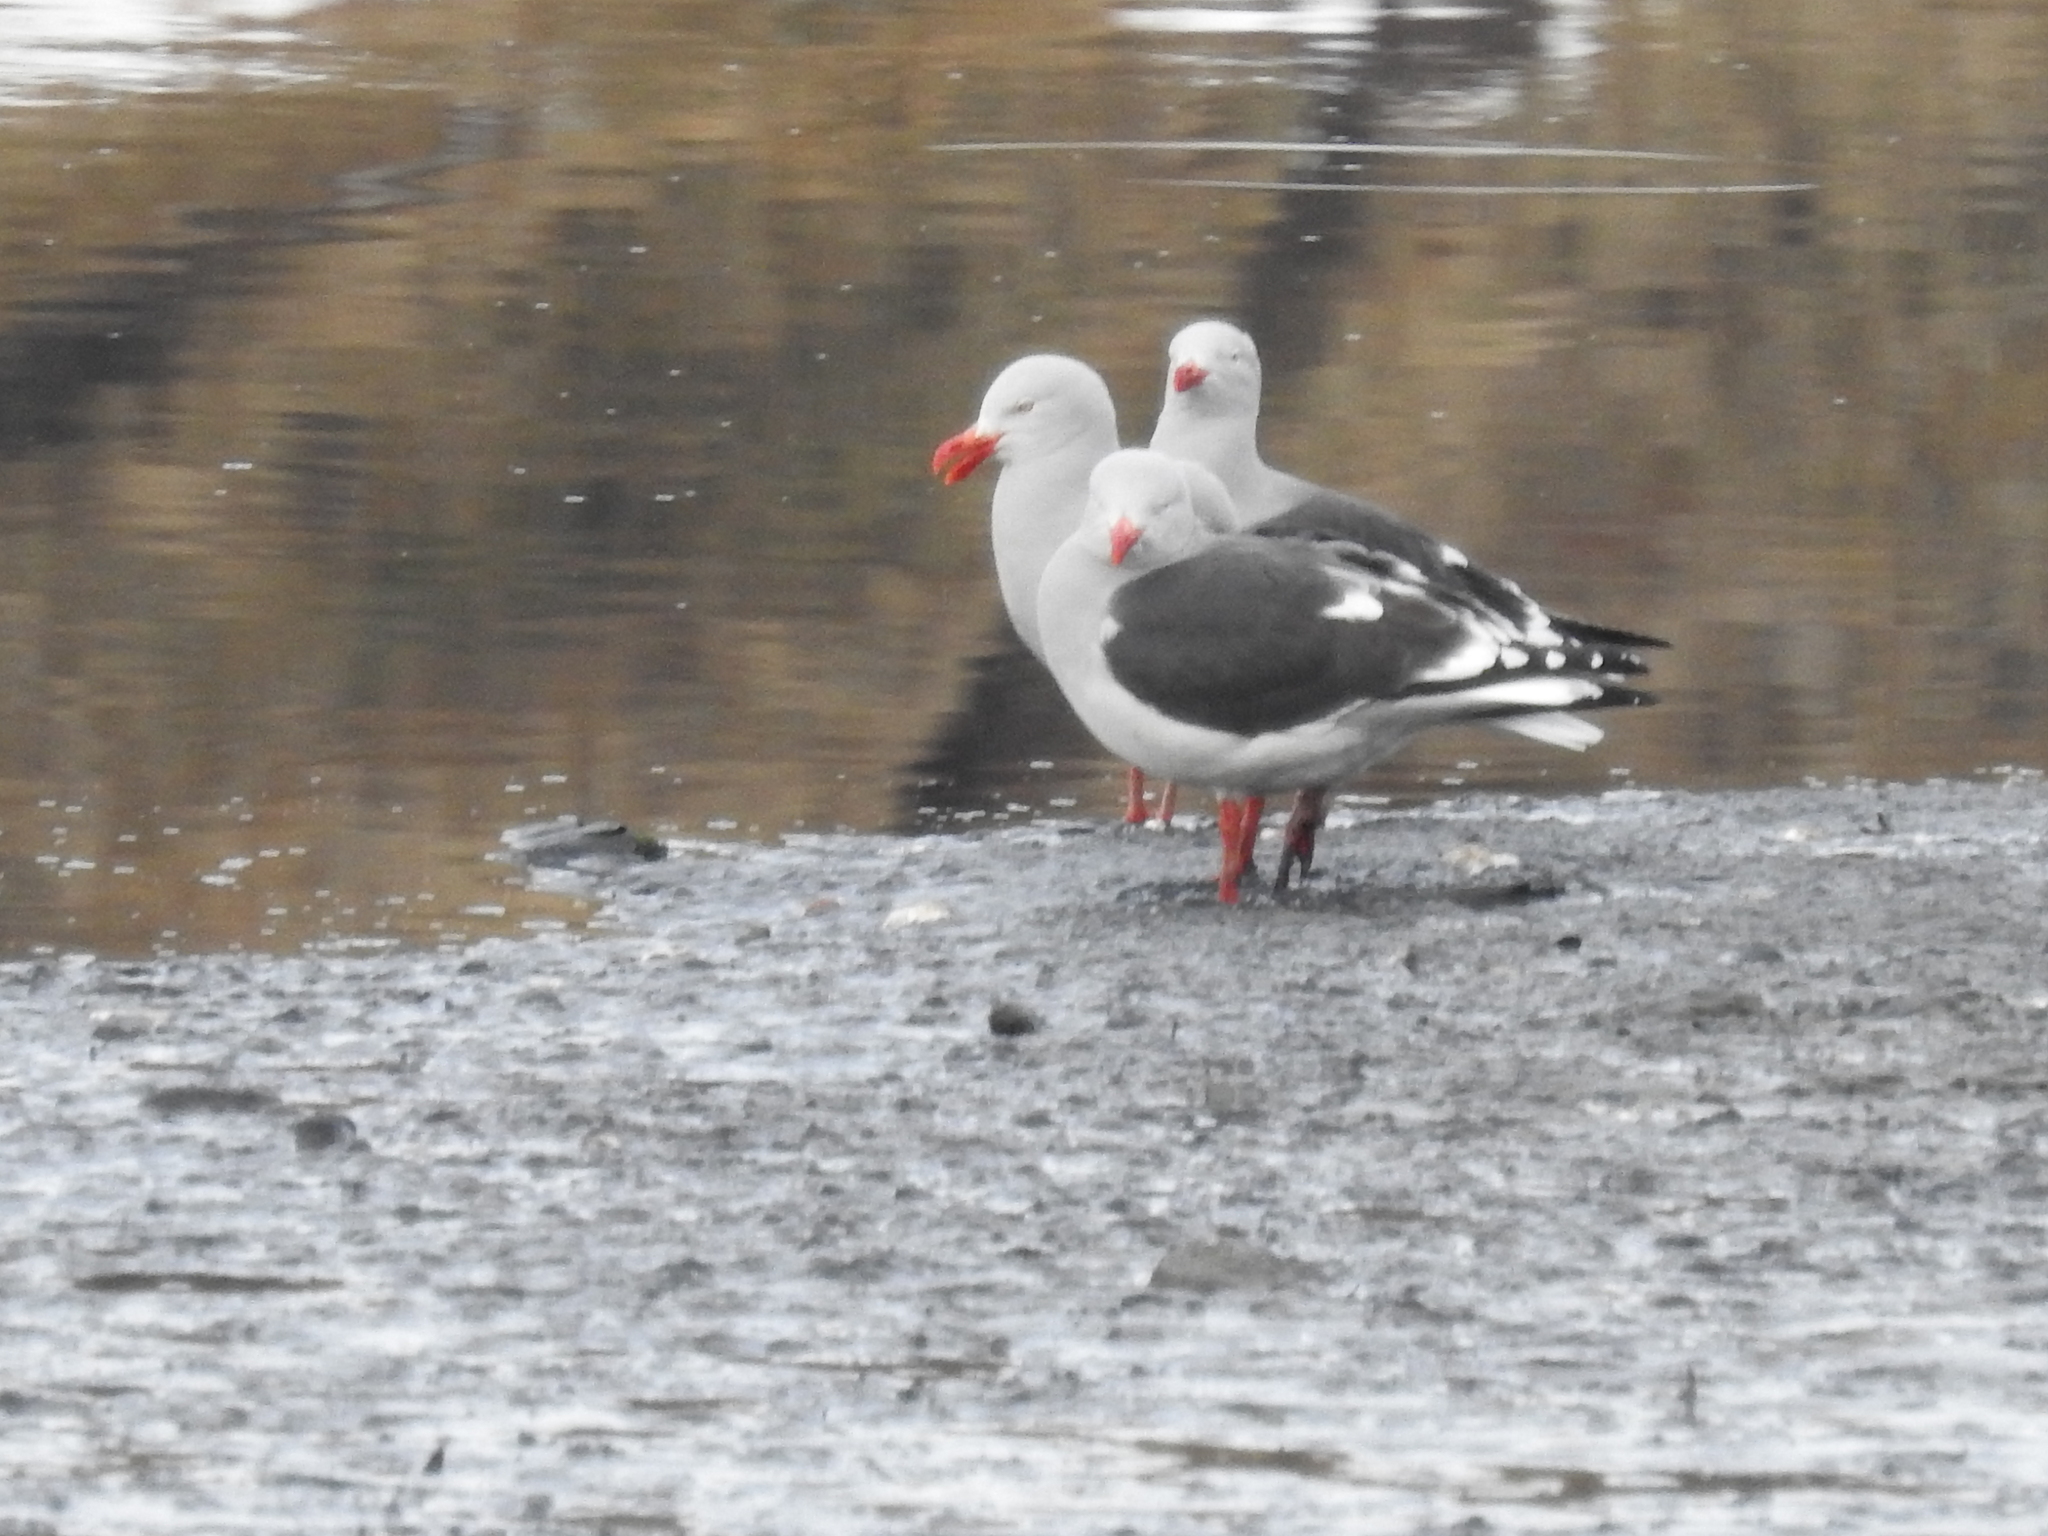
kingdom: Animalia
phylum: Chordata
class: Aves
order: Charadriiformes
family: Laridae
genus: Leucophaeus
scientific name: Leucophaeus scoresbii
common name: Dolphin gull
